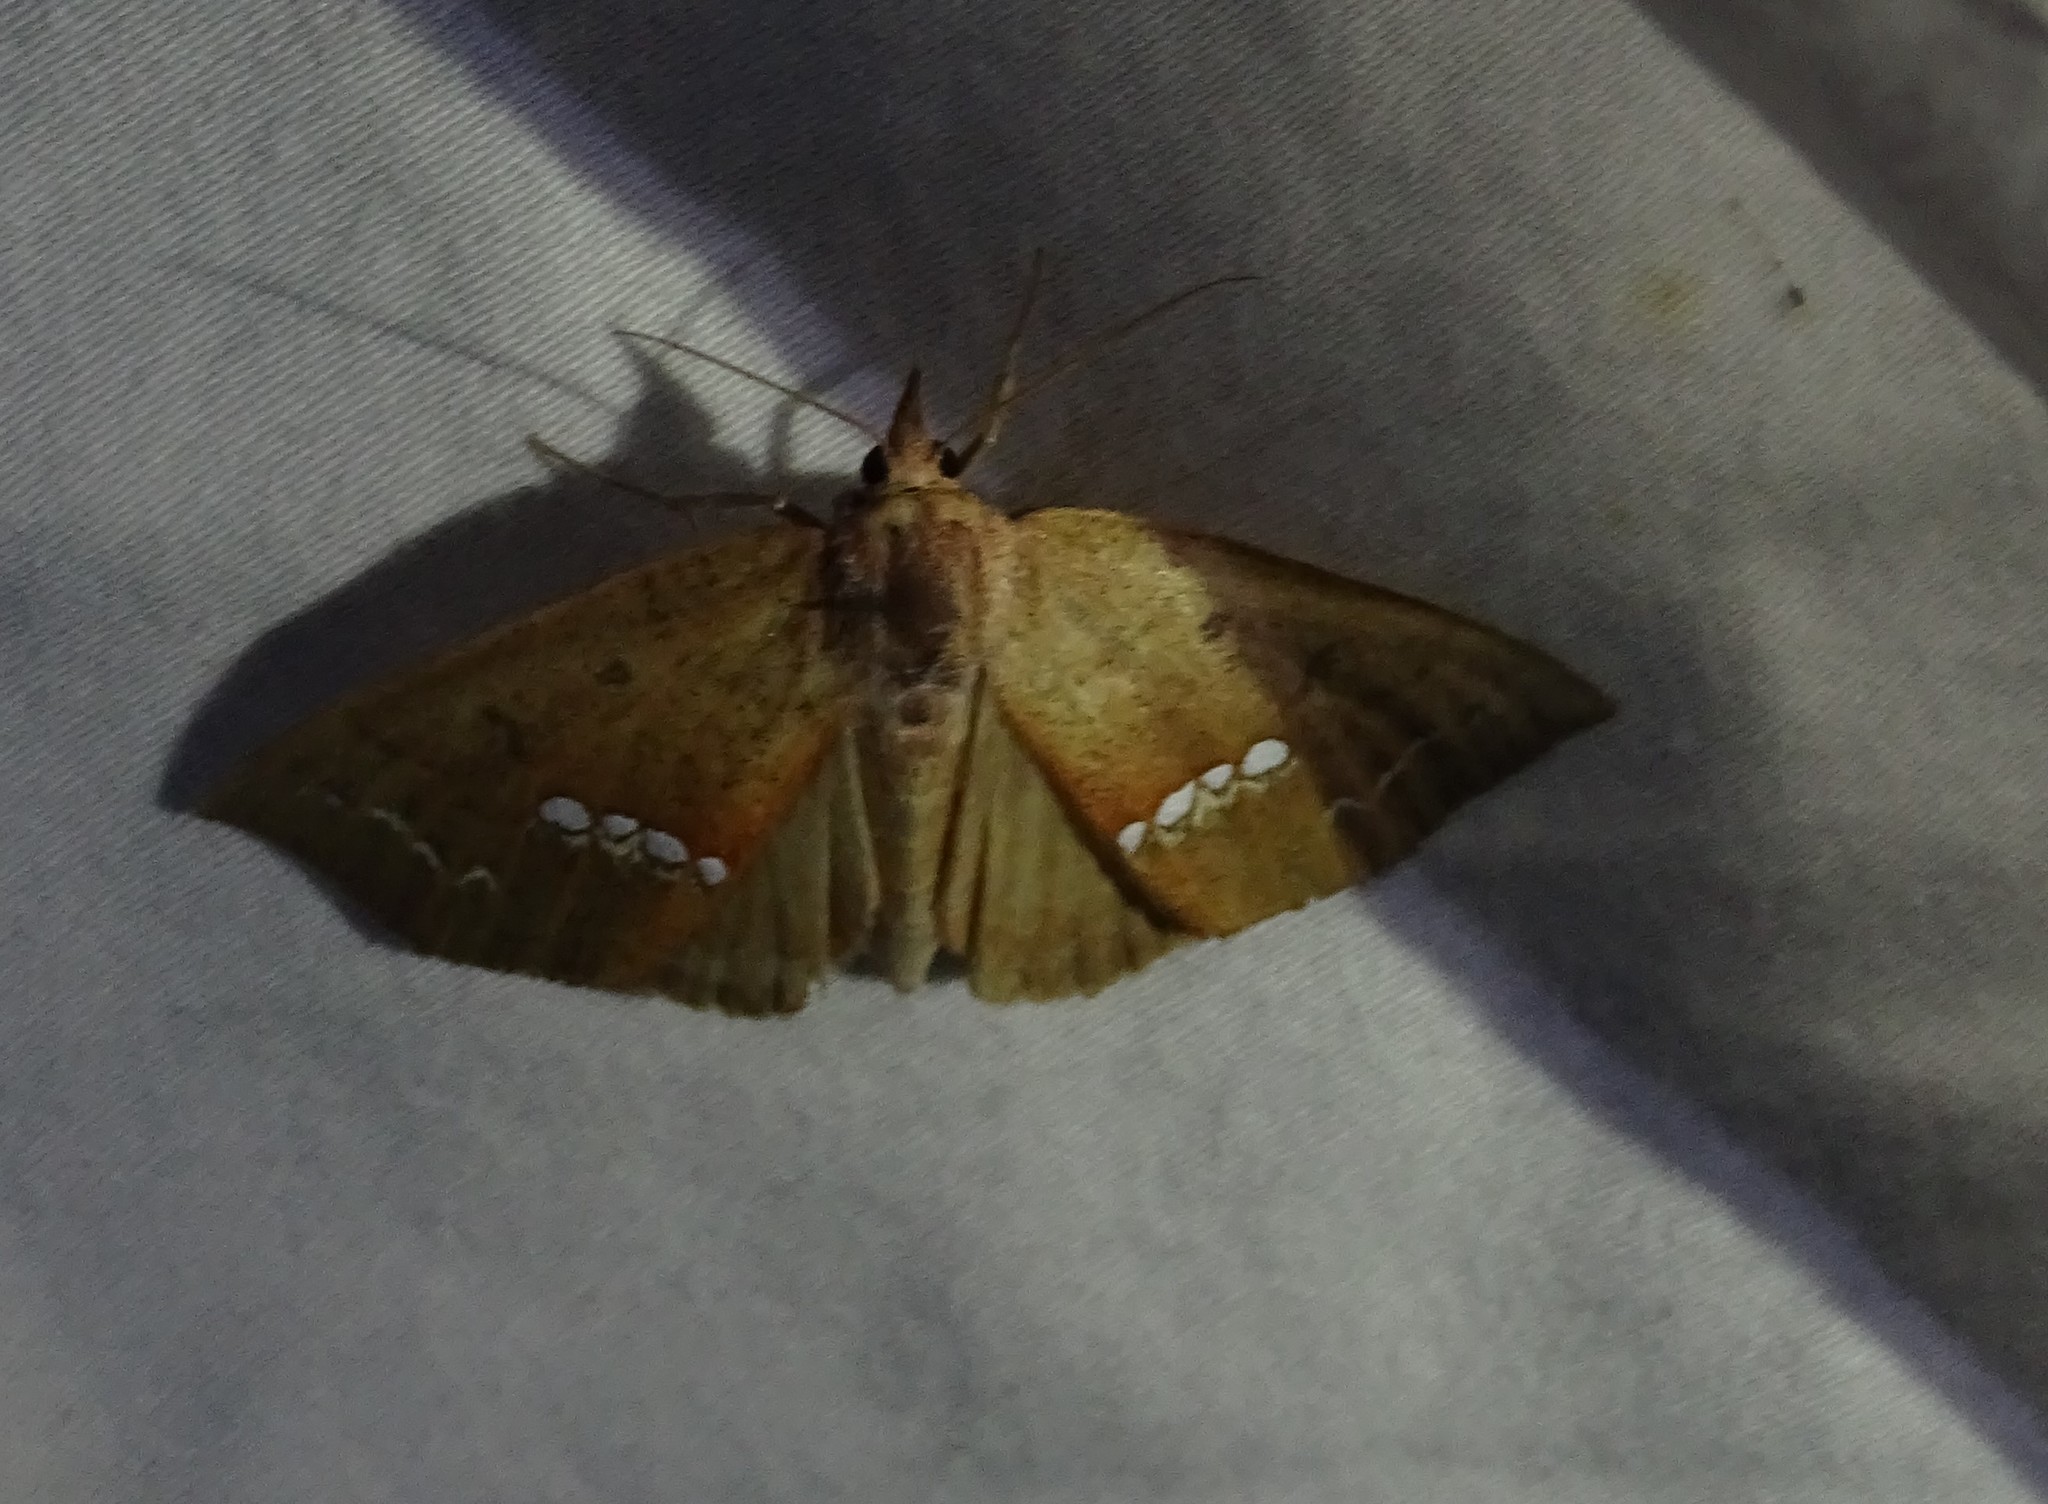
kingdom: Animalia
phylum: Arthropoda
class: Insecta
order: Lepidoptera
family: Erebidae
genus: Hypsoropha
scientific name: Hypsoropha monilis
